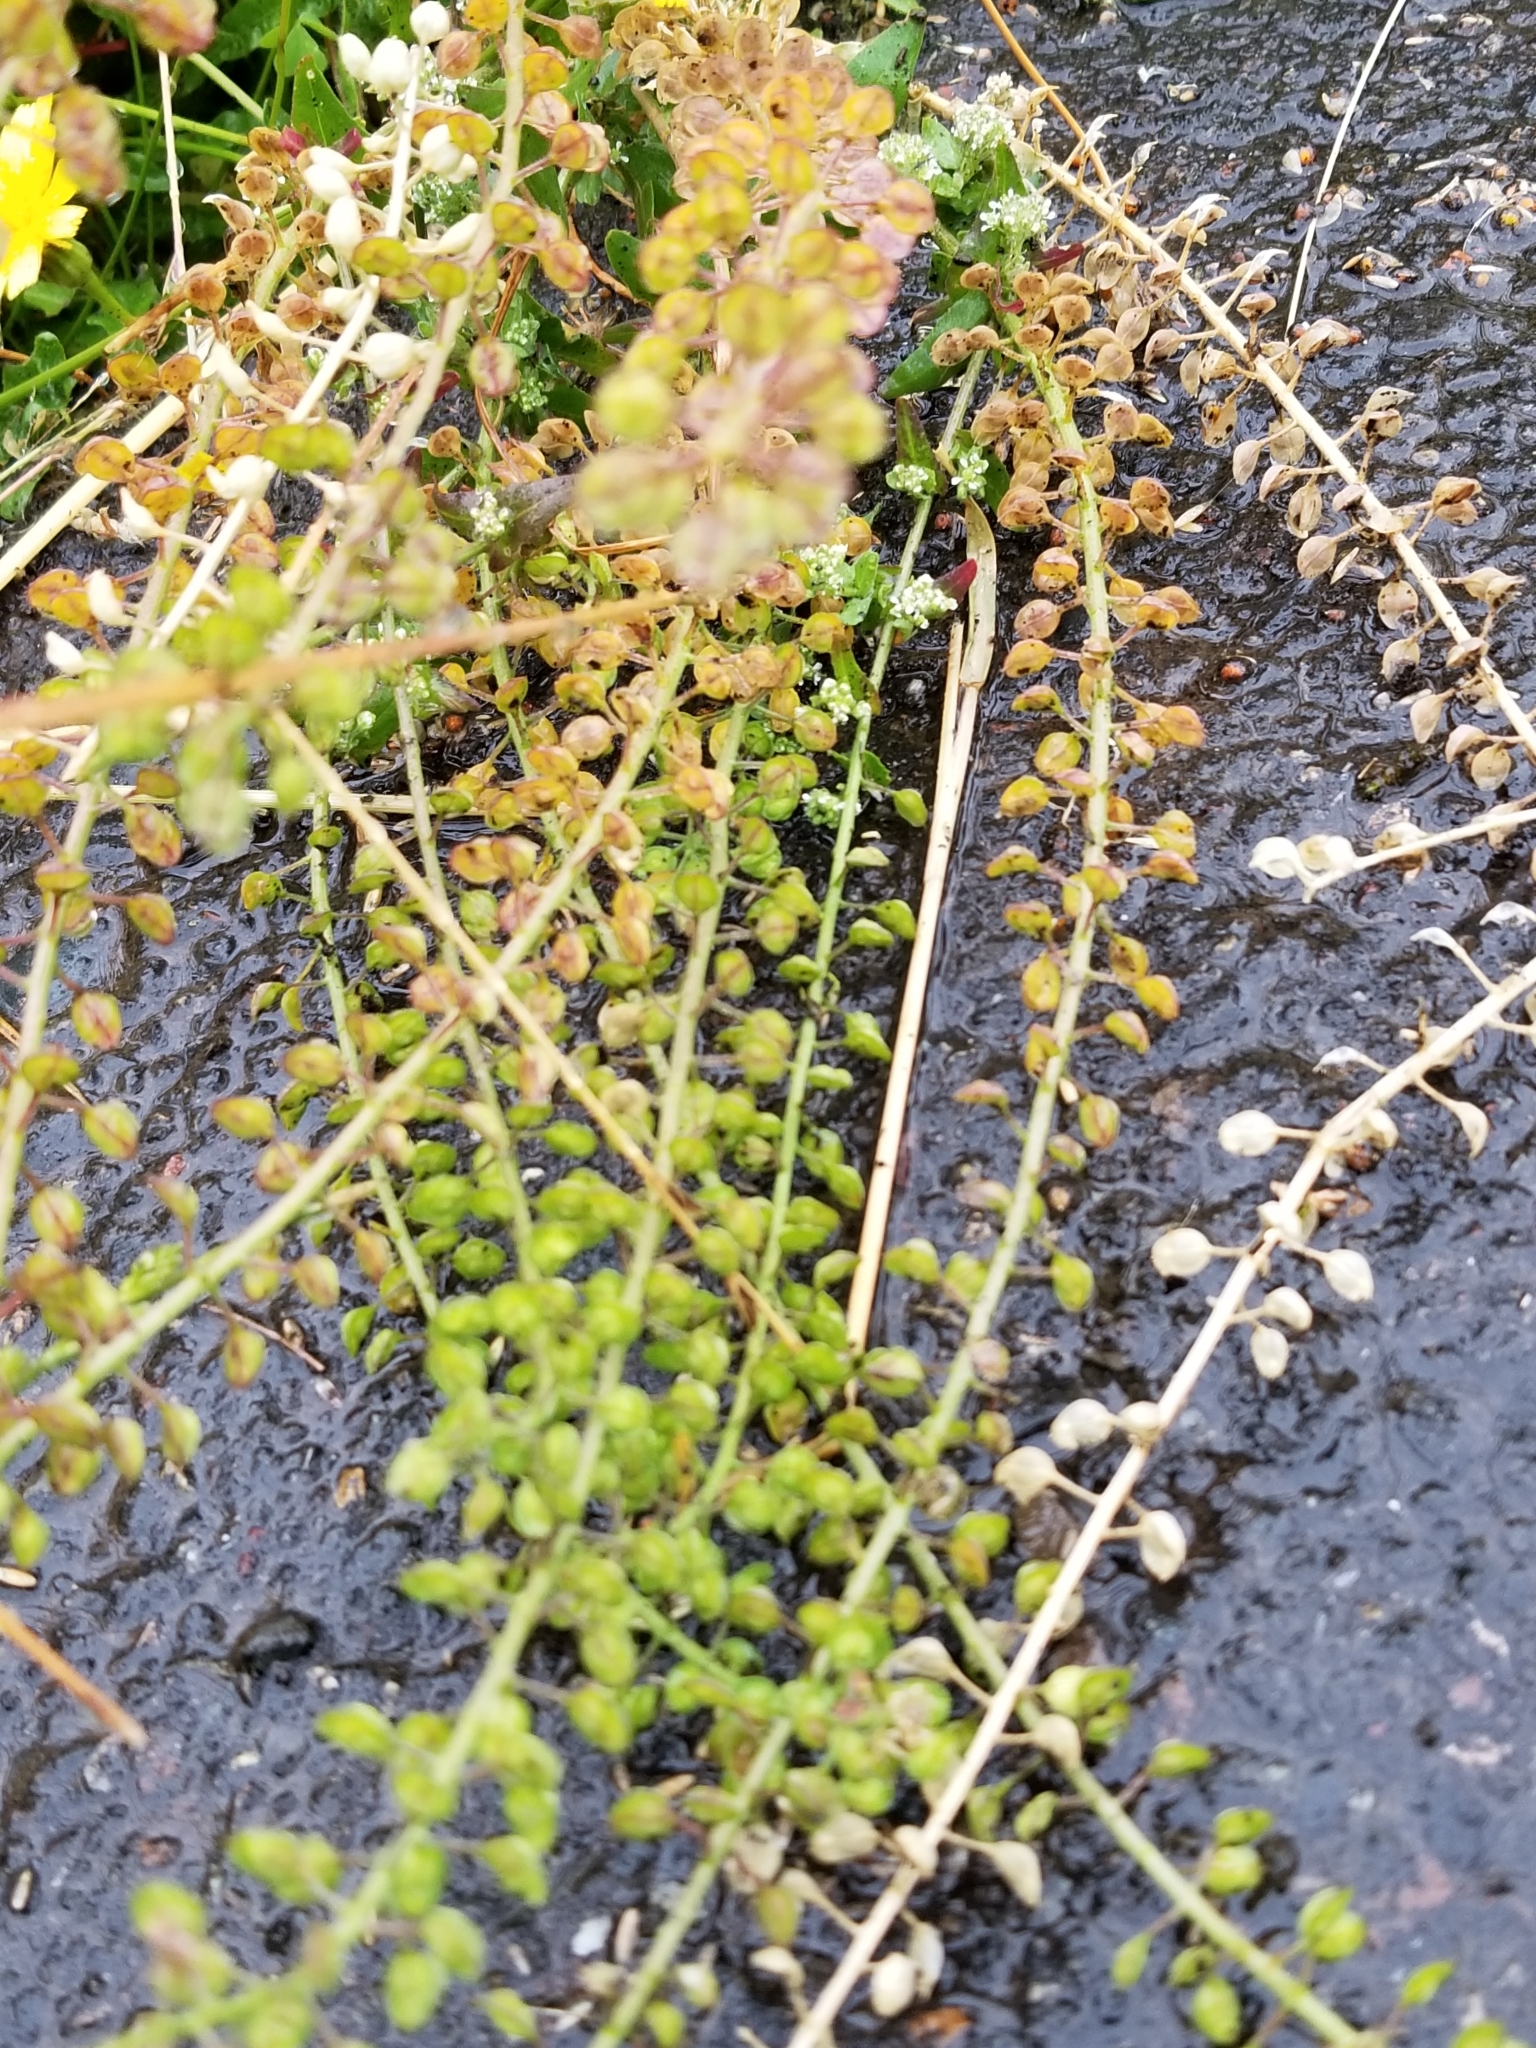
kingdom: Plantae
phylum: Tracheophyta
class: Magnoliopsida
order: Brassicales
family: Brassicaceae
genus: Lepidium
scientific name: Lepidium campestre
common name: Field pepperwort
